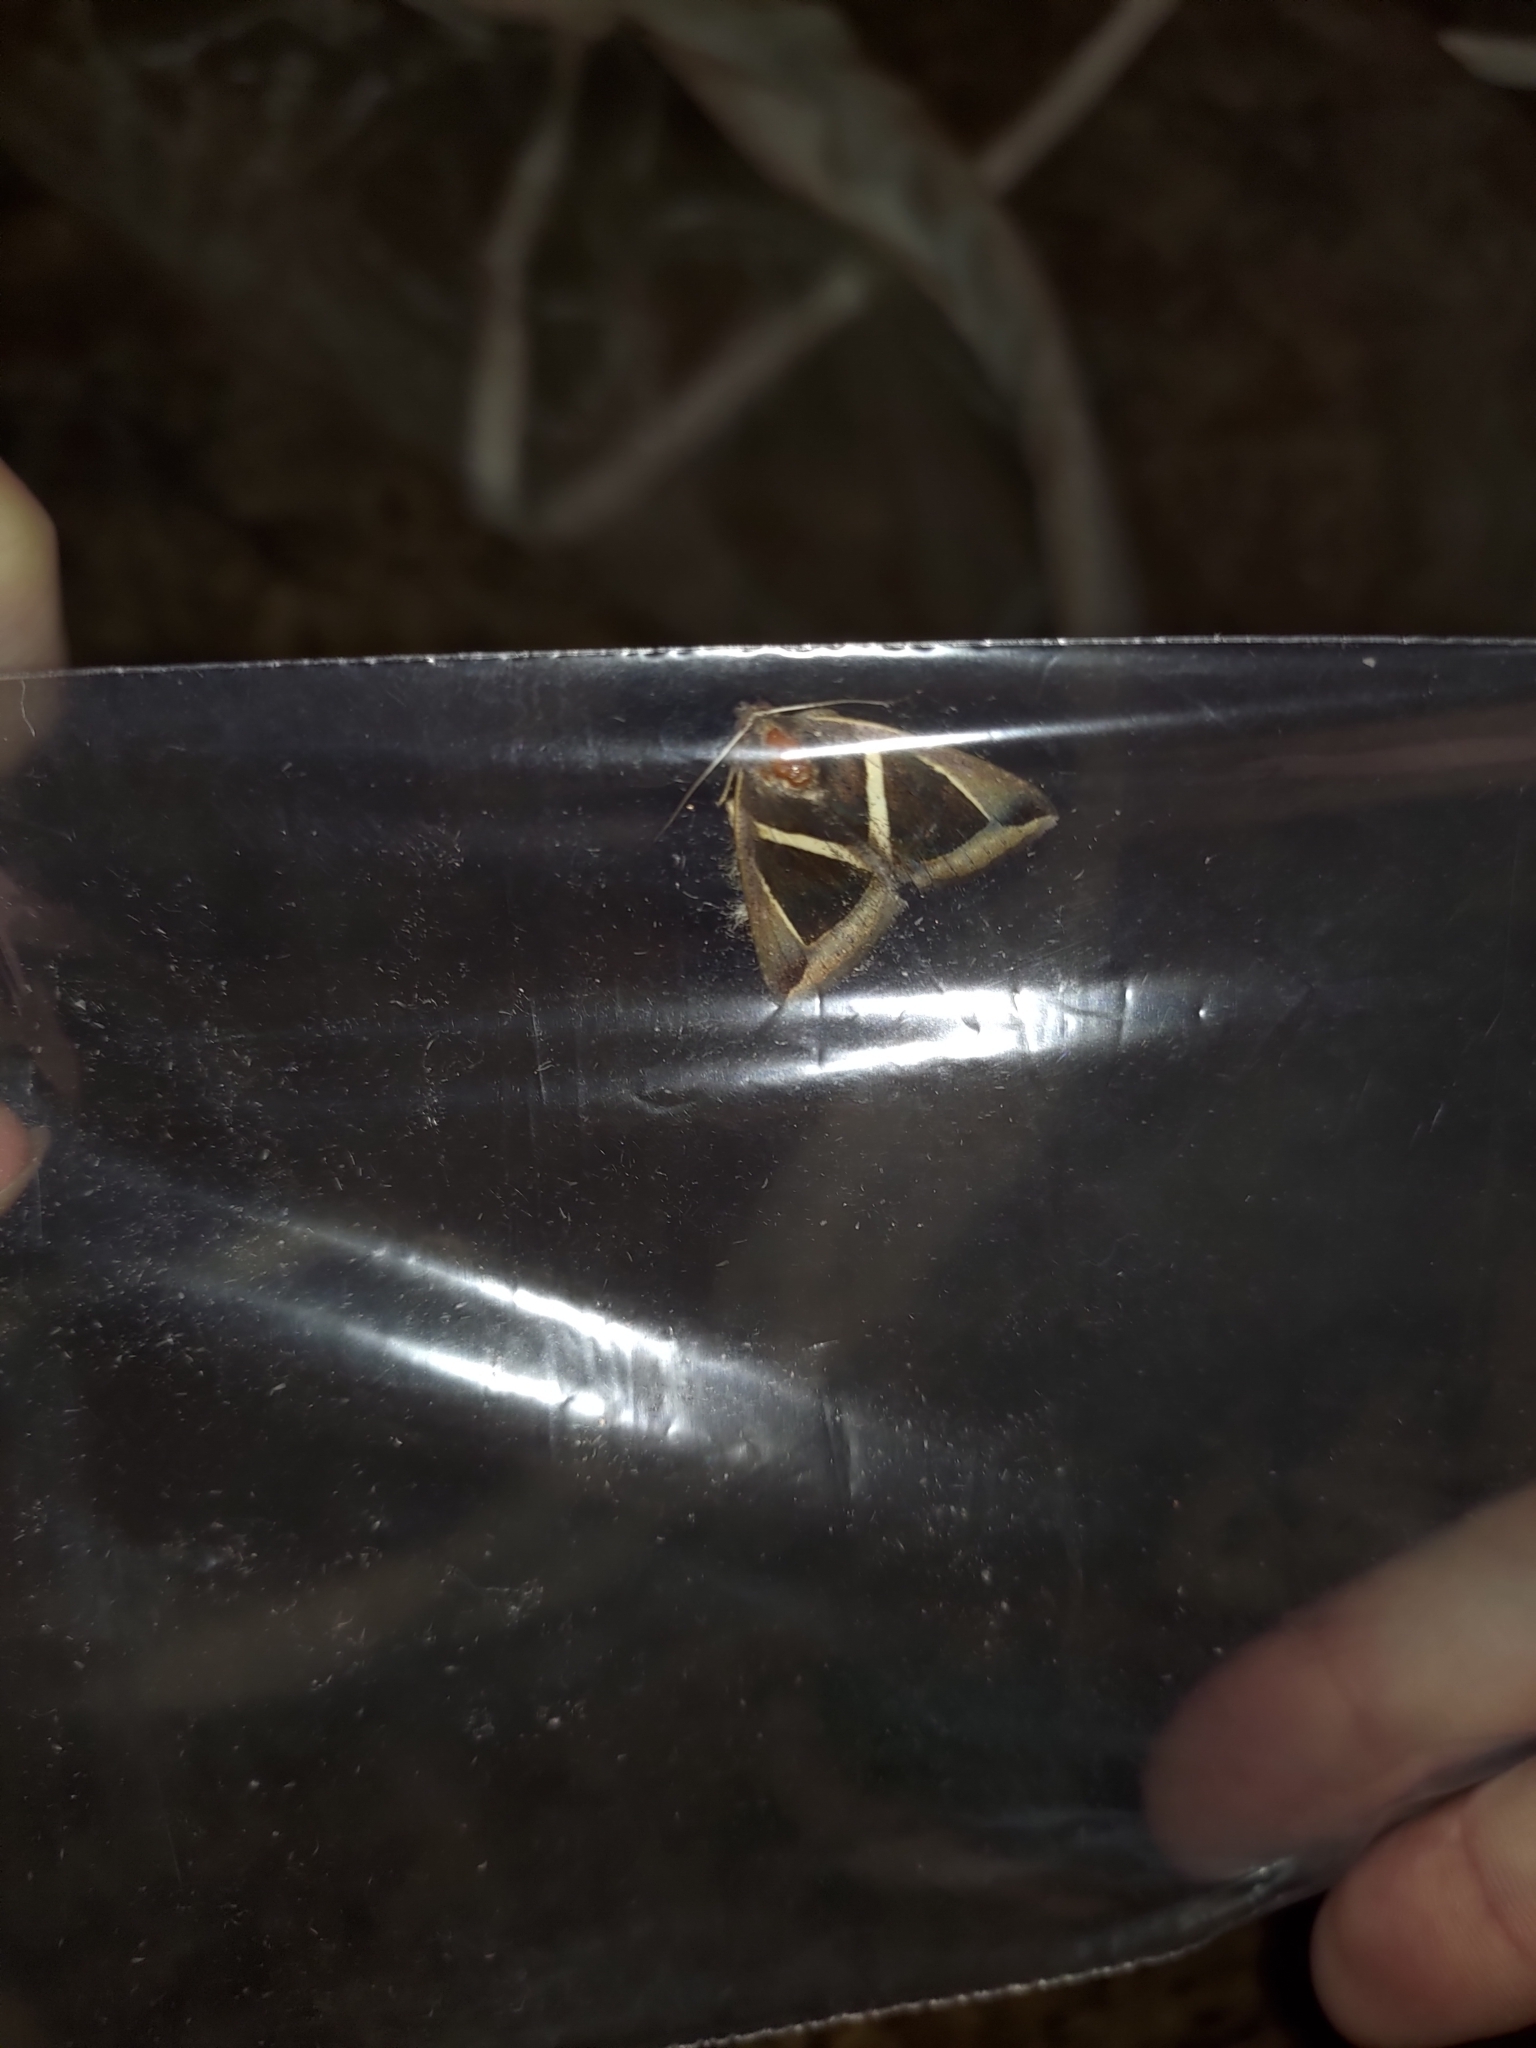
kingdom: Animalia
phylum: Arthropoda
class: Insecta
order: Lepidoptera
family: Erebidae
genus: Fodina
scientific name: Fodina kosemponis
